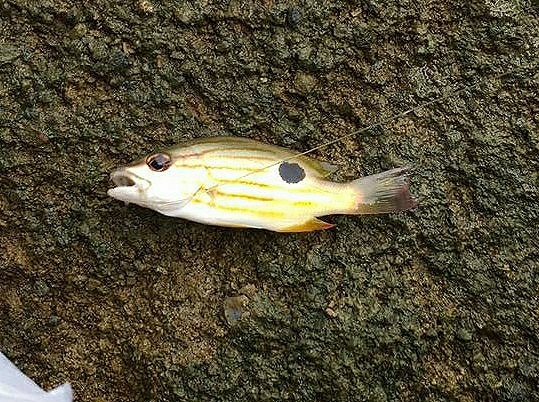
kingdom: Animalia
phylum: Chordata
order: Perciformes
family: Lutjanidae
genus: Lutjanus
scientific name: Lutjanus indicus
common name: Striped snapper
